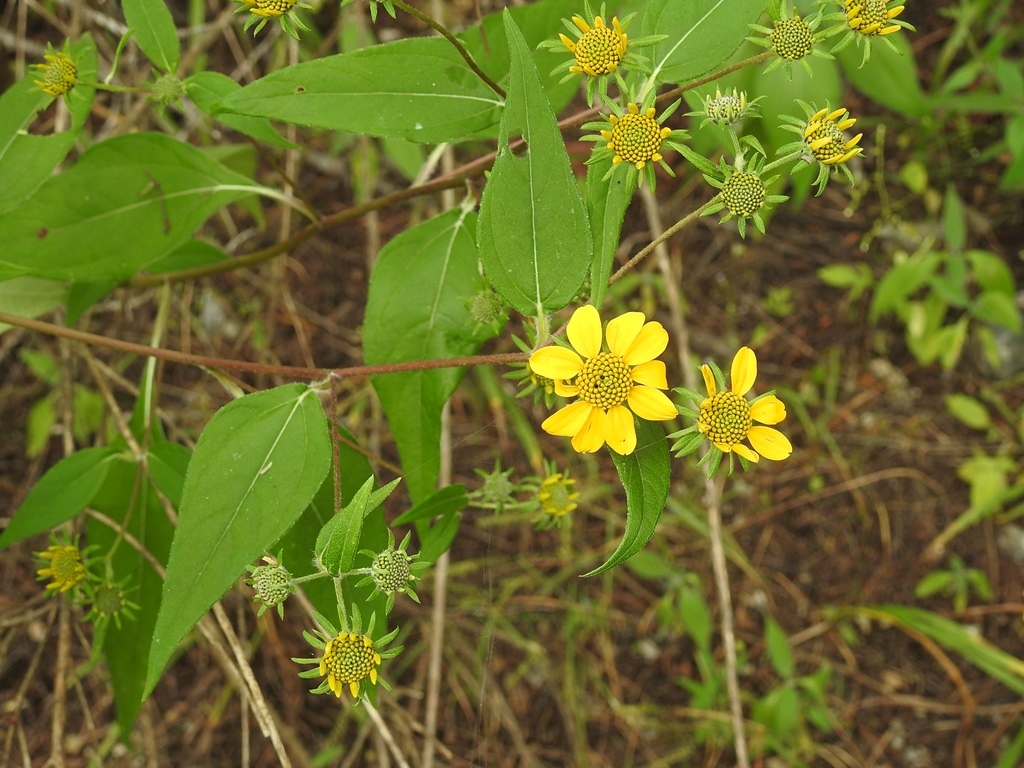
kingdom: Plantae
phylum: Tracheophyta
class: Magnoliopsida
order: Asterales
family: Asteraceae
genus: Verbesina
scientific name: Verbesina hypoglauca
